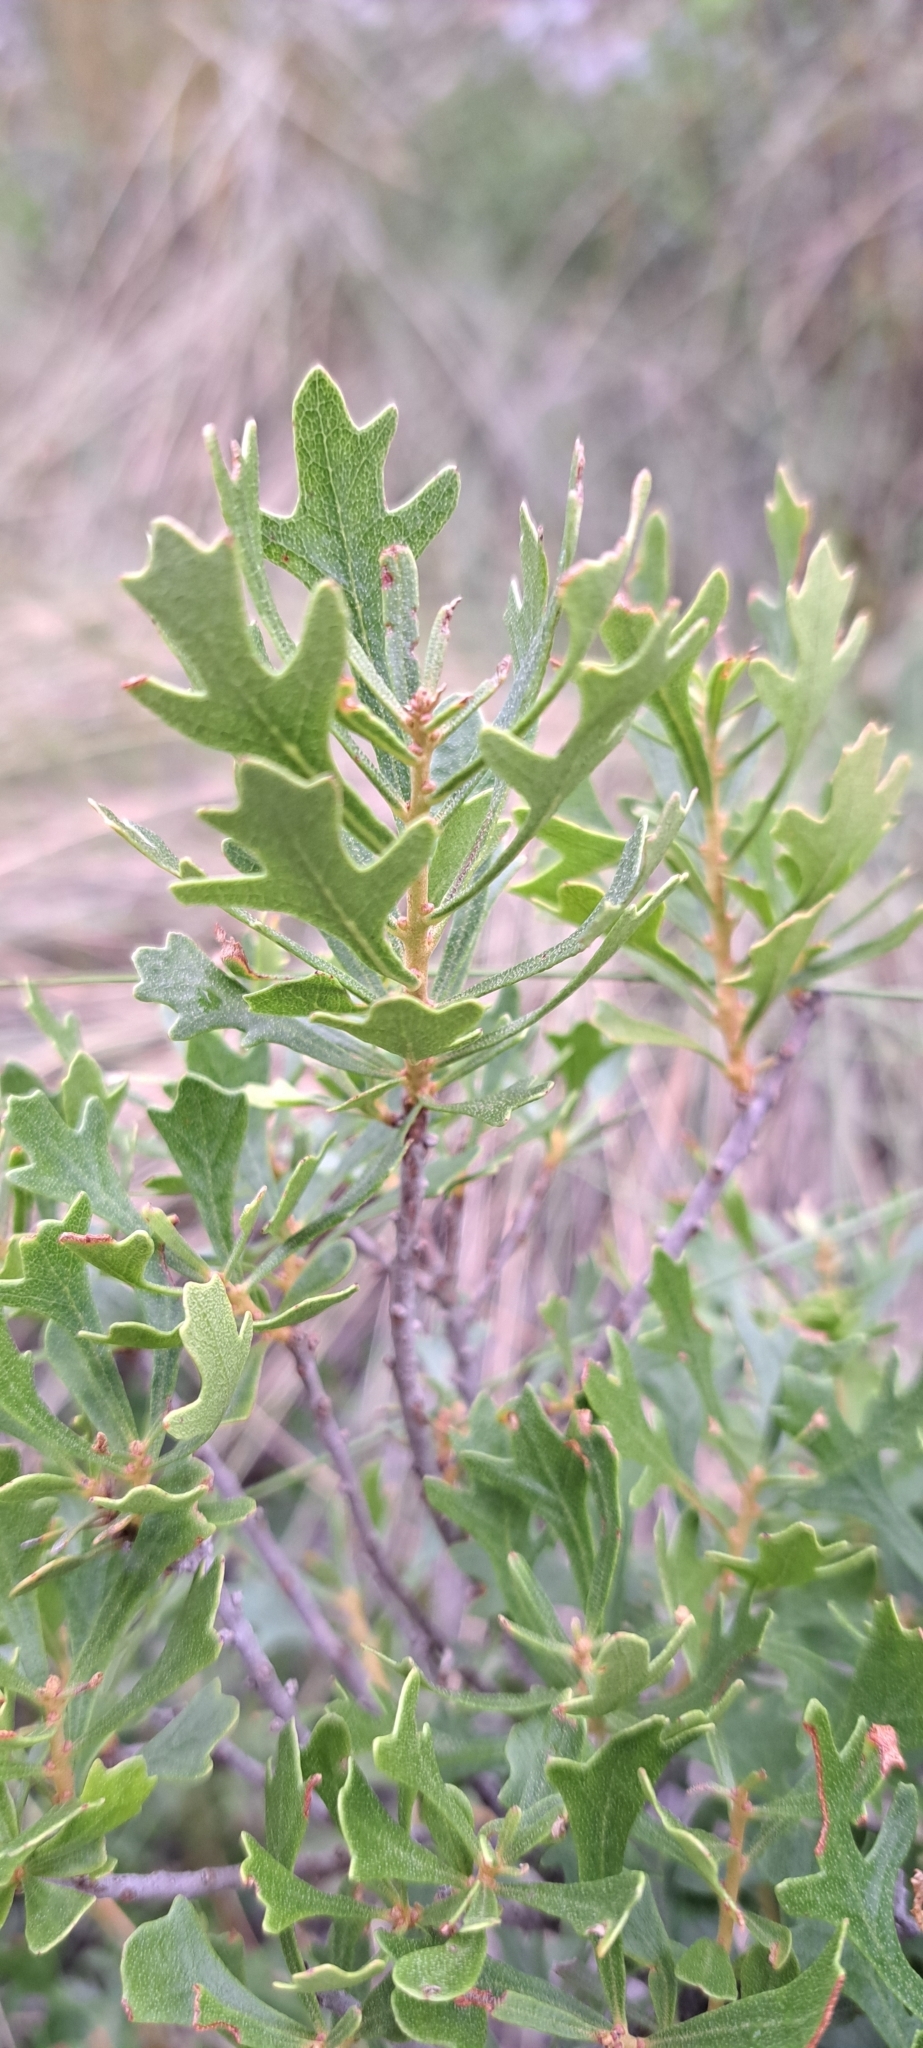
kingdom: Plantae
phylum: Tracheophyta
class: Magnoliopsida
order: Fagales
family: Myricaceae
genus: Morella
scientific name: Morella quercifolia
